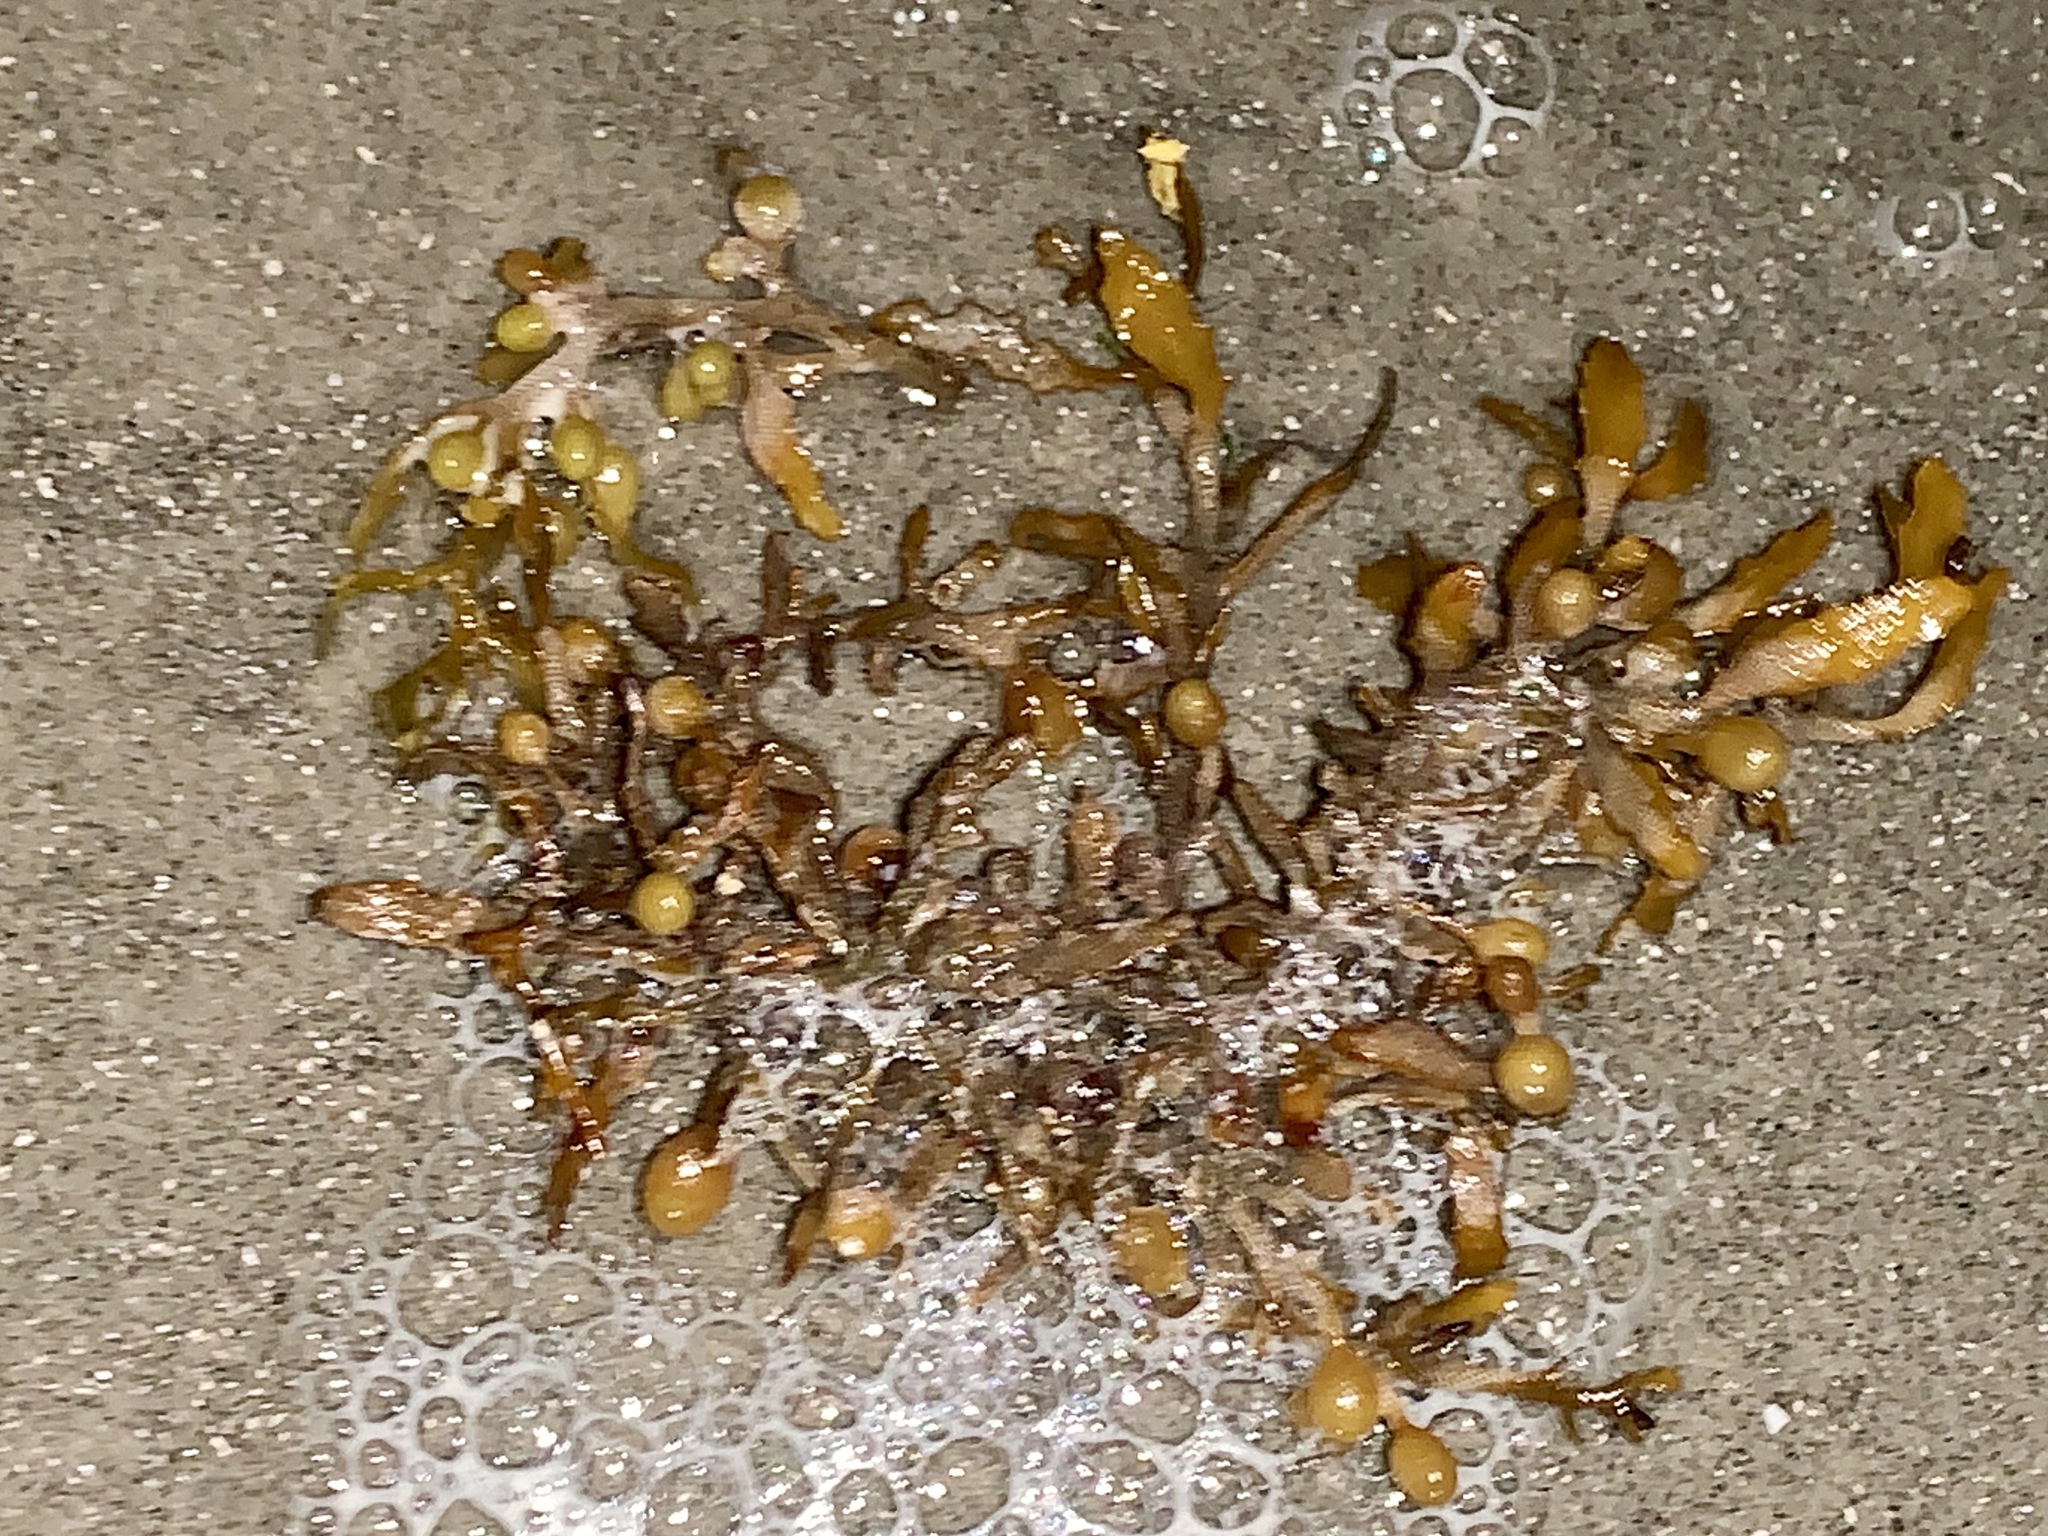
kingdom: Chromista
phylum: Ochrophyta
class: Phaeophyceae
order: Fucales
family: Sargassaceae
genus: Sargassum
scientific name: Sargassum fluitans
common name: Sargassum seaweed
